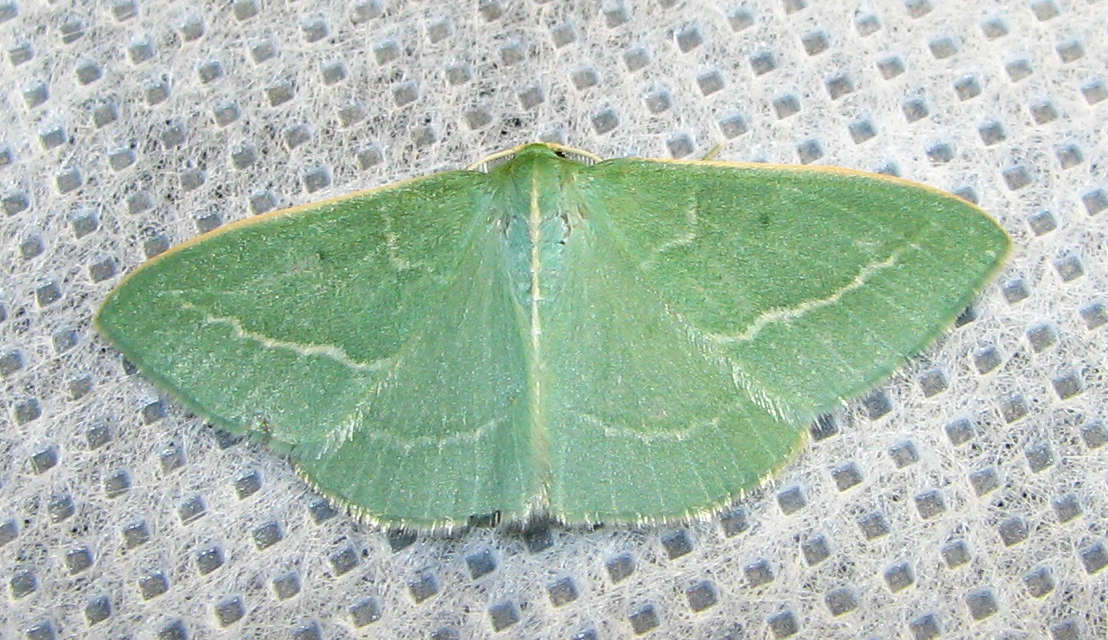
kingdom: Animalia
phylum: Arthropoda
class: Insecta
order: Lepidoptera
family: Geometridae
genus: Chlorocoma
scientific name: Chlorocoma stereota
